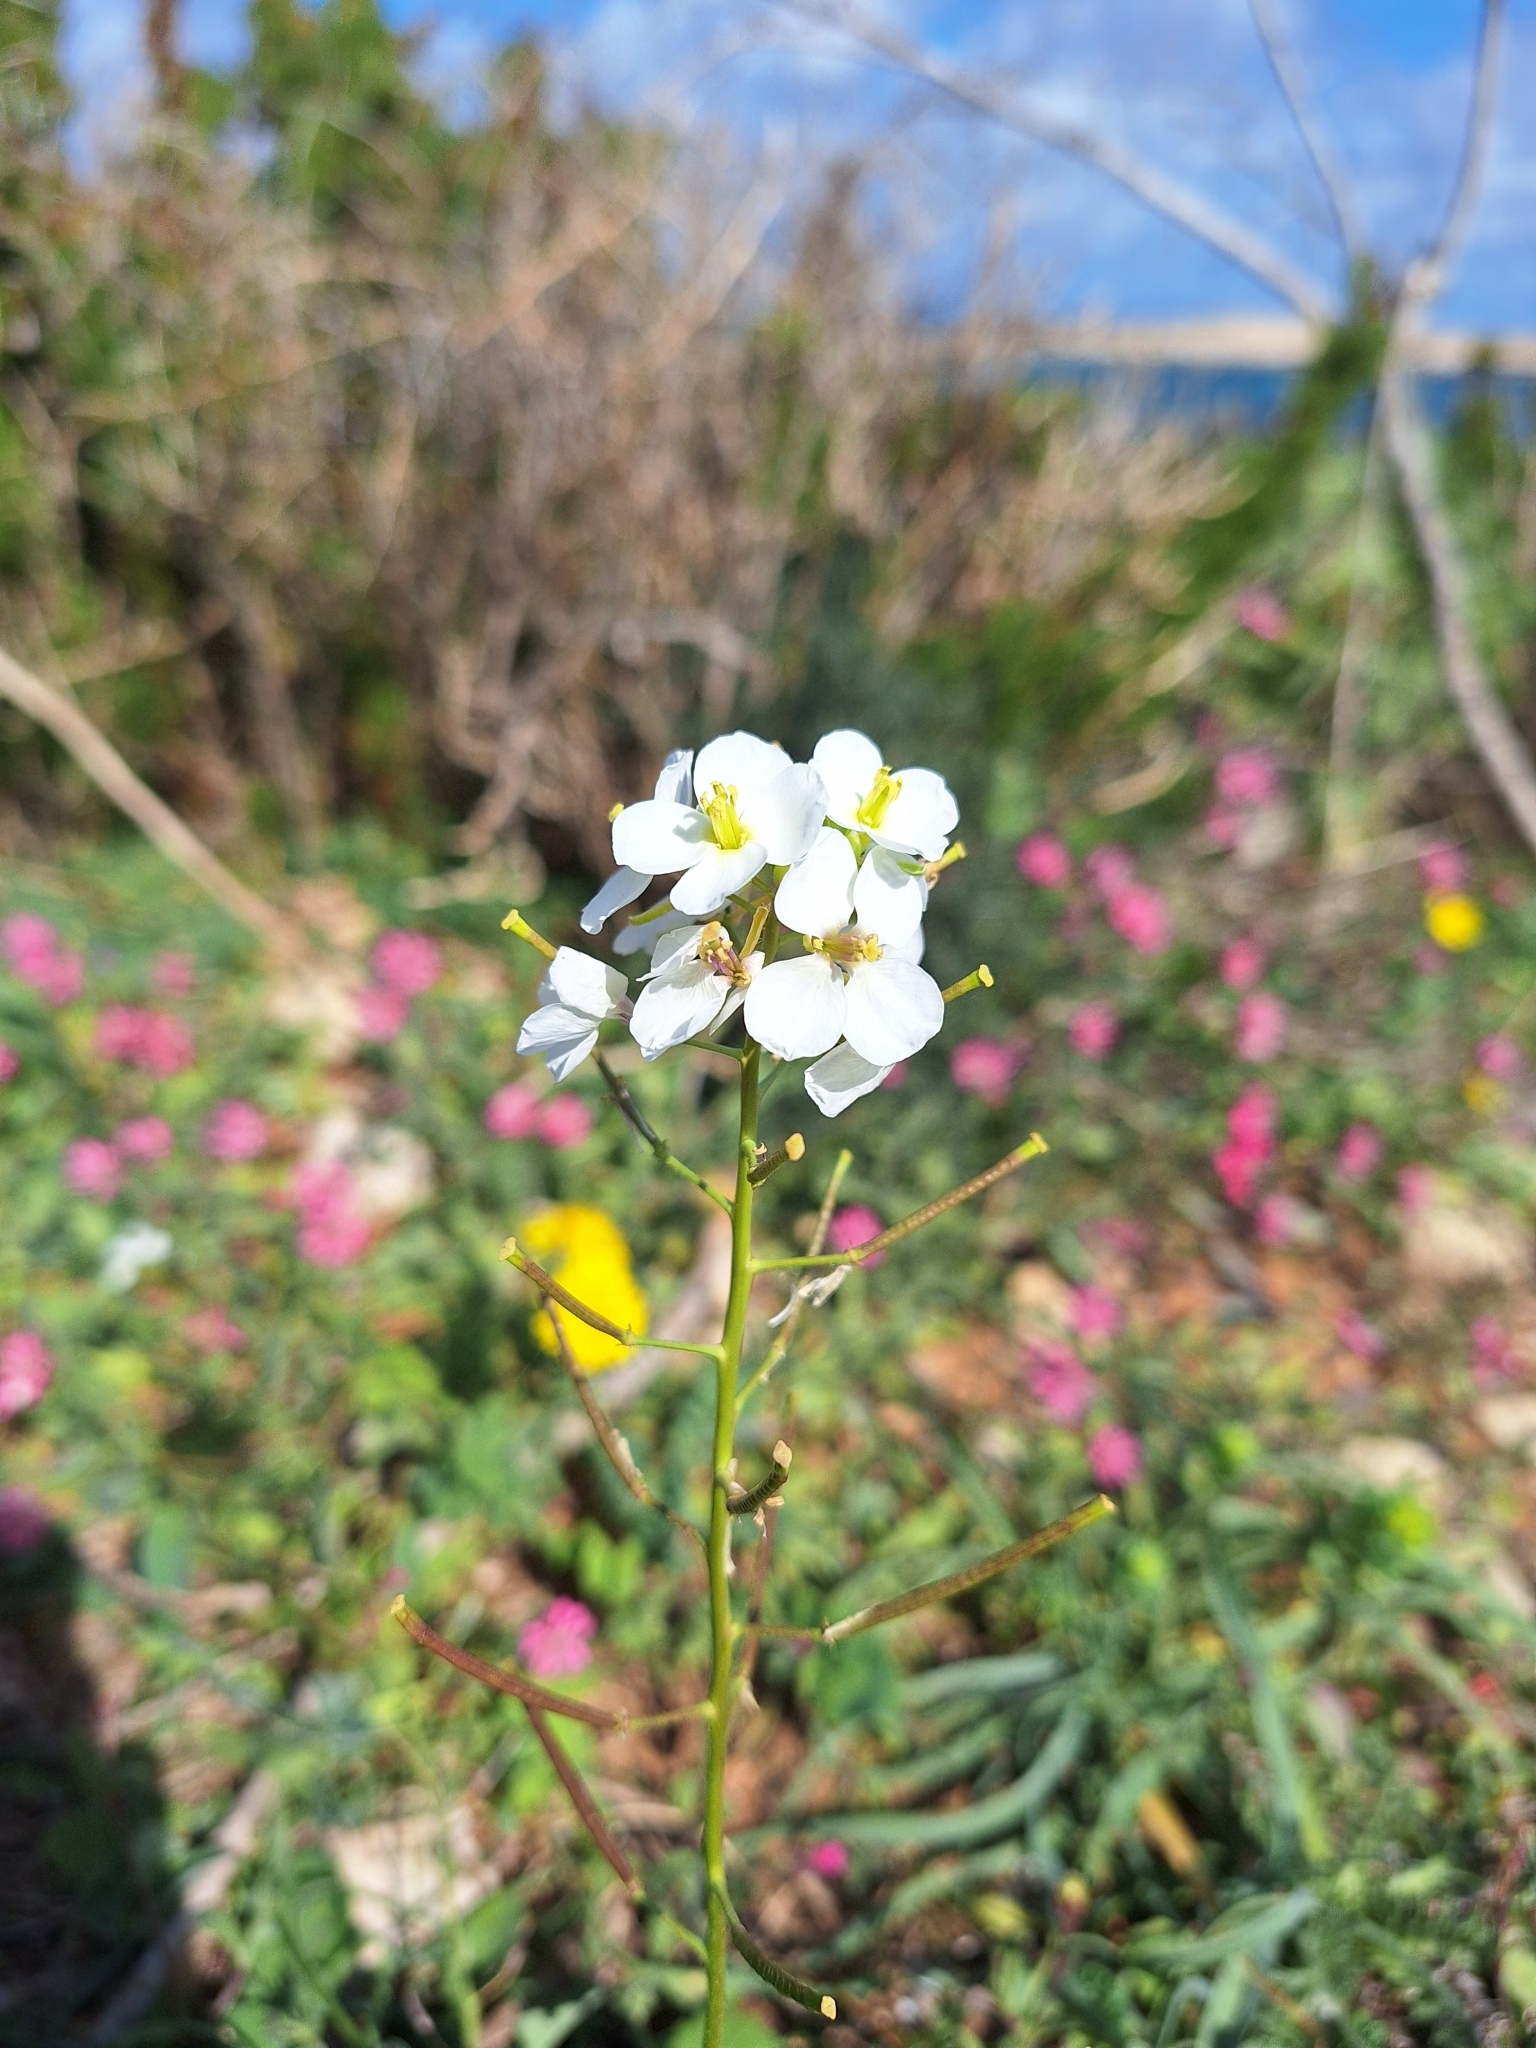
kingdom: Plantae
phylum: Tracheophyta
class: Magnoliopsida
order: Brassicales
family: Brassicaceae
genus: Diplotaxis
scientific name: Diplotaxis erucoides
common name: White rocket
